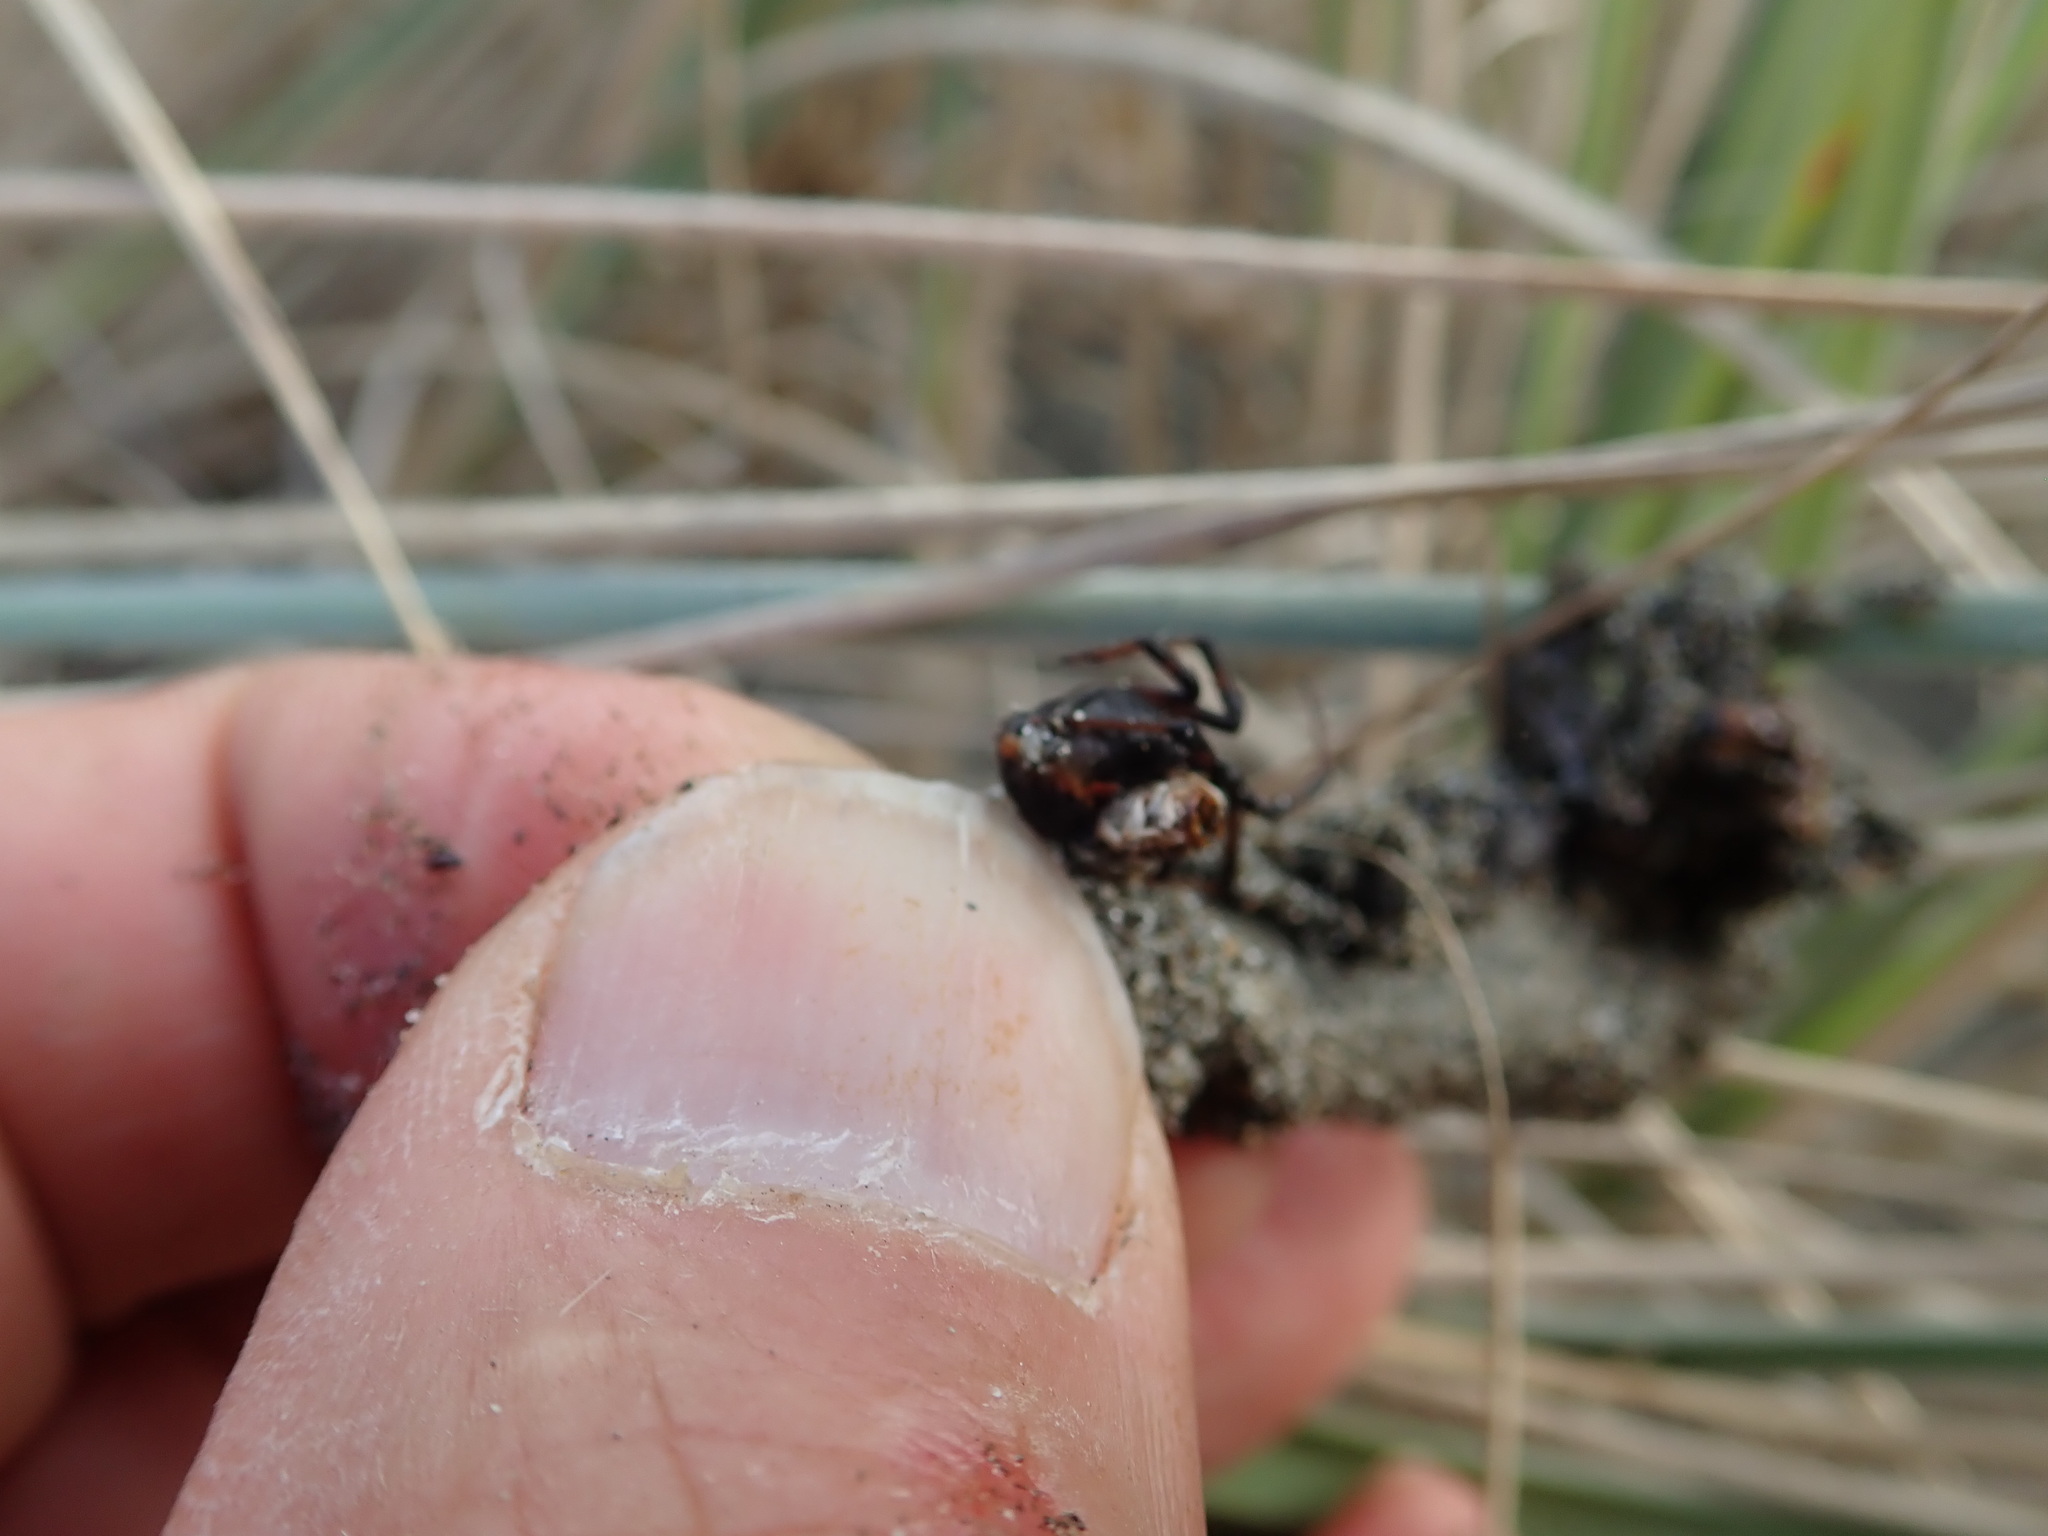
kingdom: Animalia
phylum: Arthropoda
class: Arachnida
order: Araneae
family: Theridiidae
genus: Latrodectus
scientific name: Latrodectus katipo
